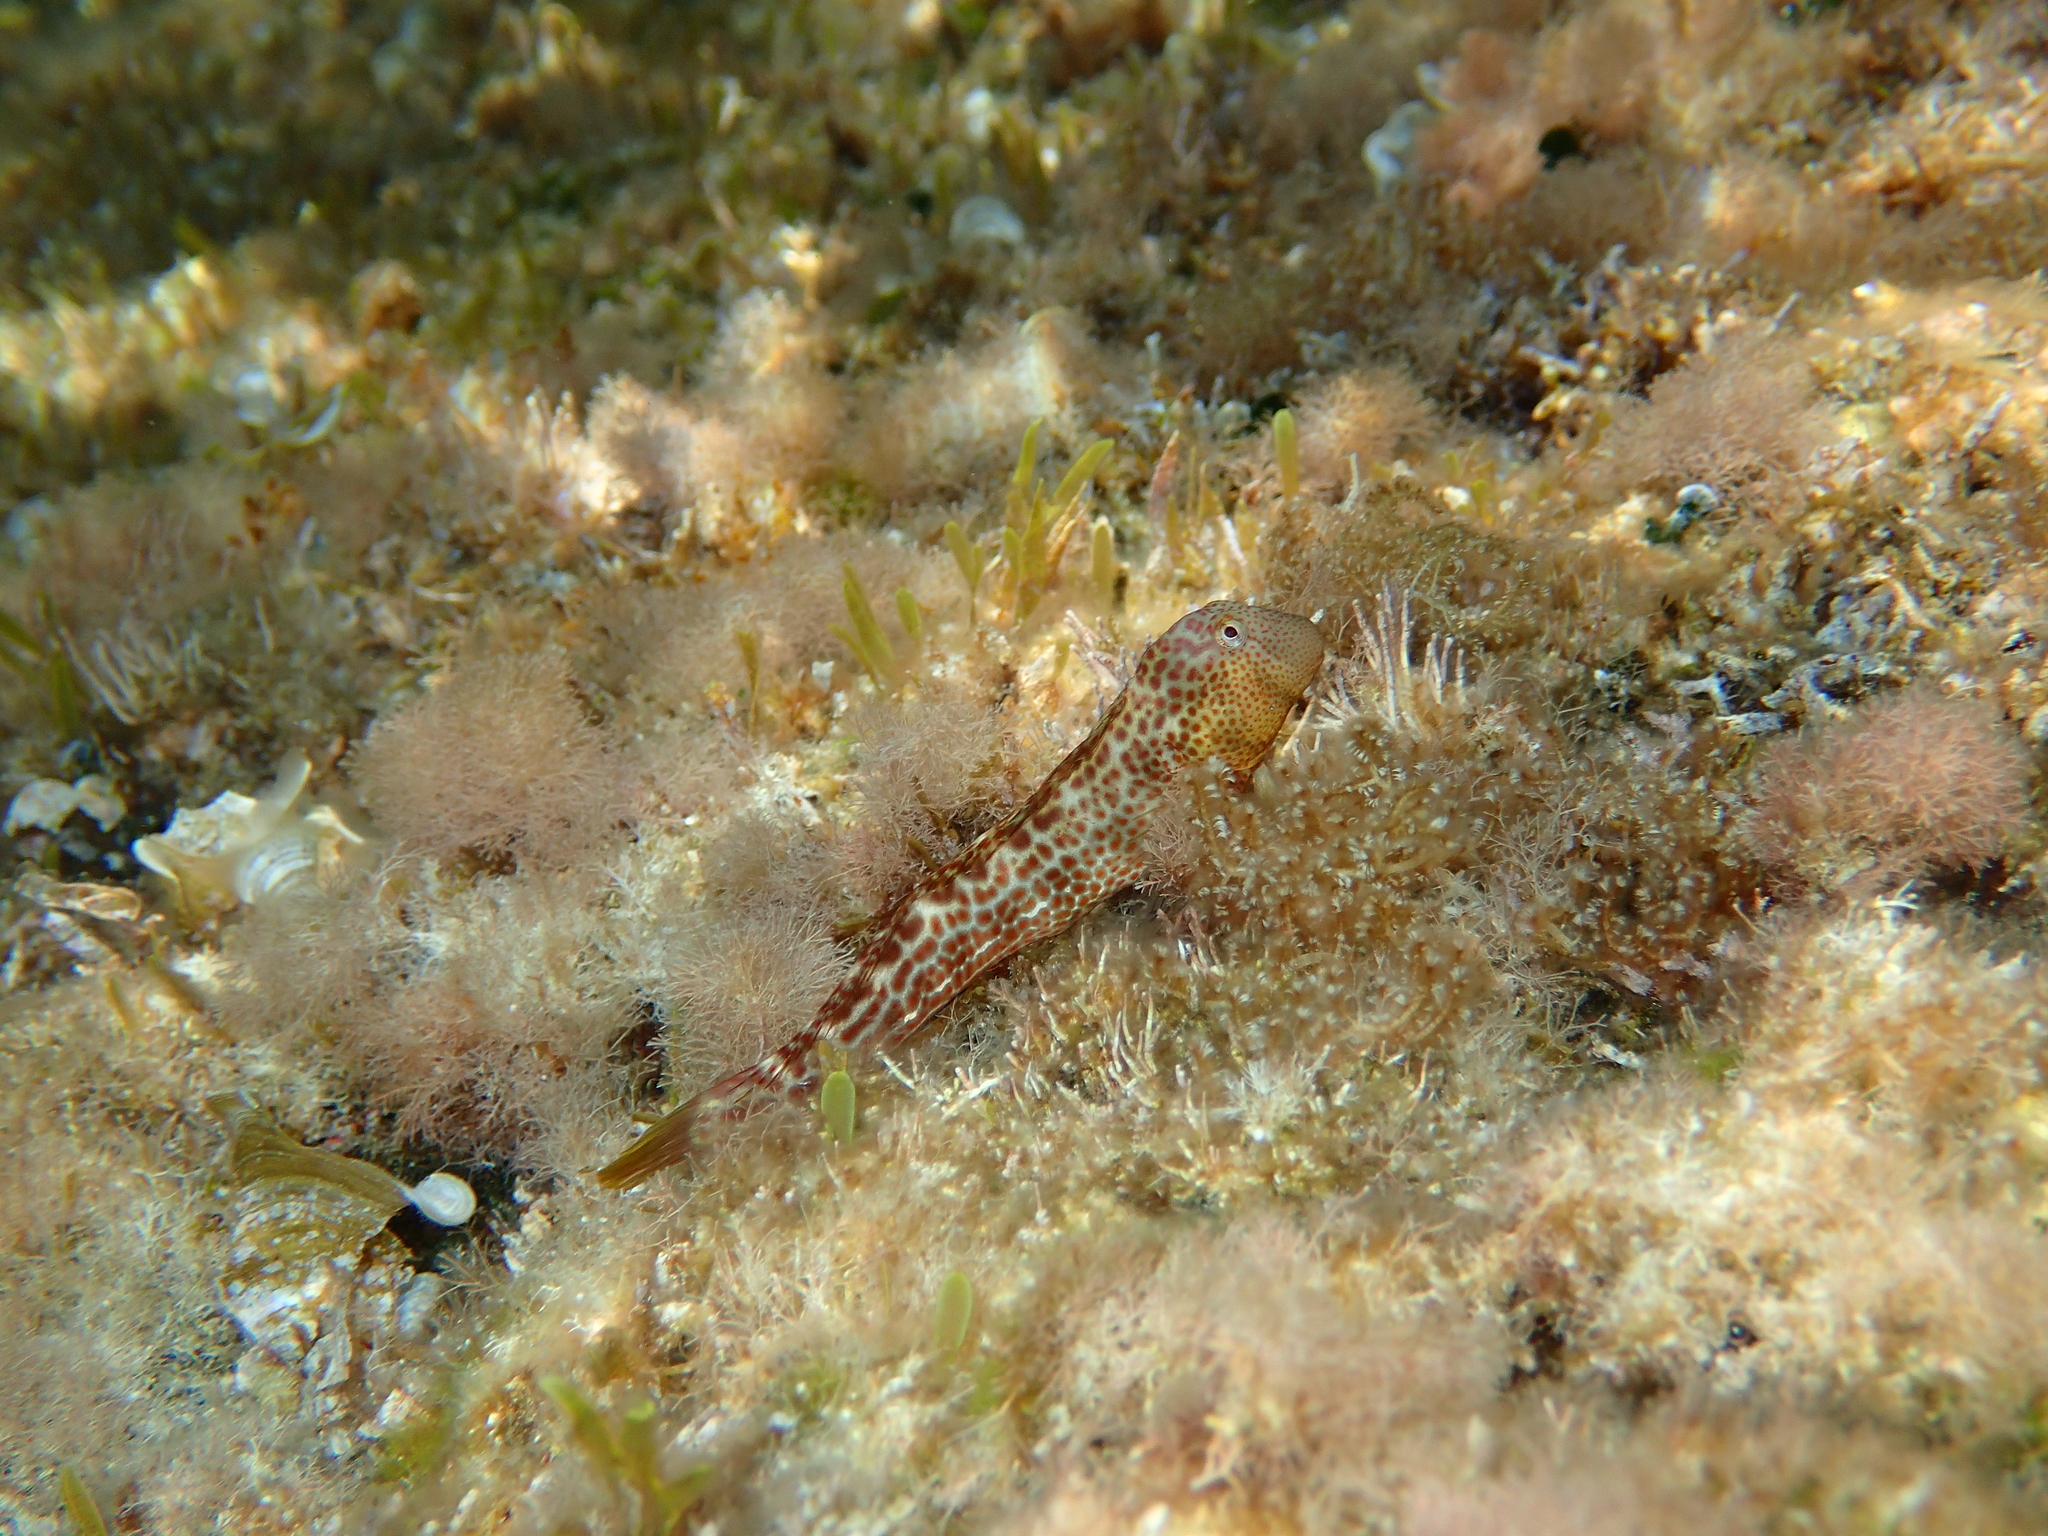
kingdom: Animalia
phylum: Chordata
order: Perciformes
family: Blenniidae
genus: Microlipophrys
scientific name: Microlipophrys canevae
